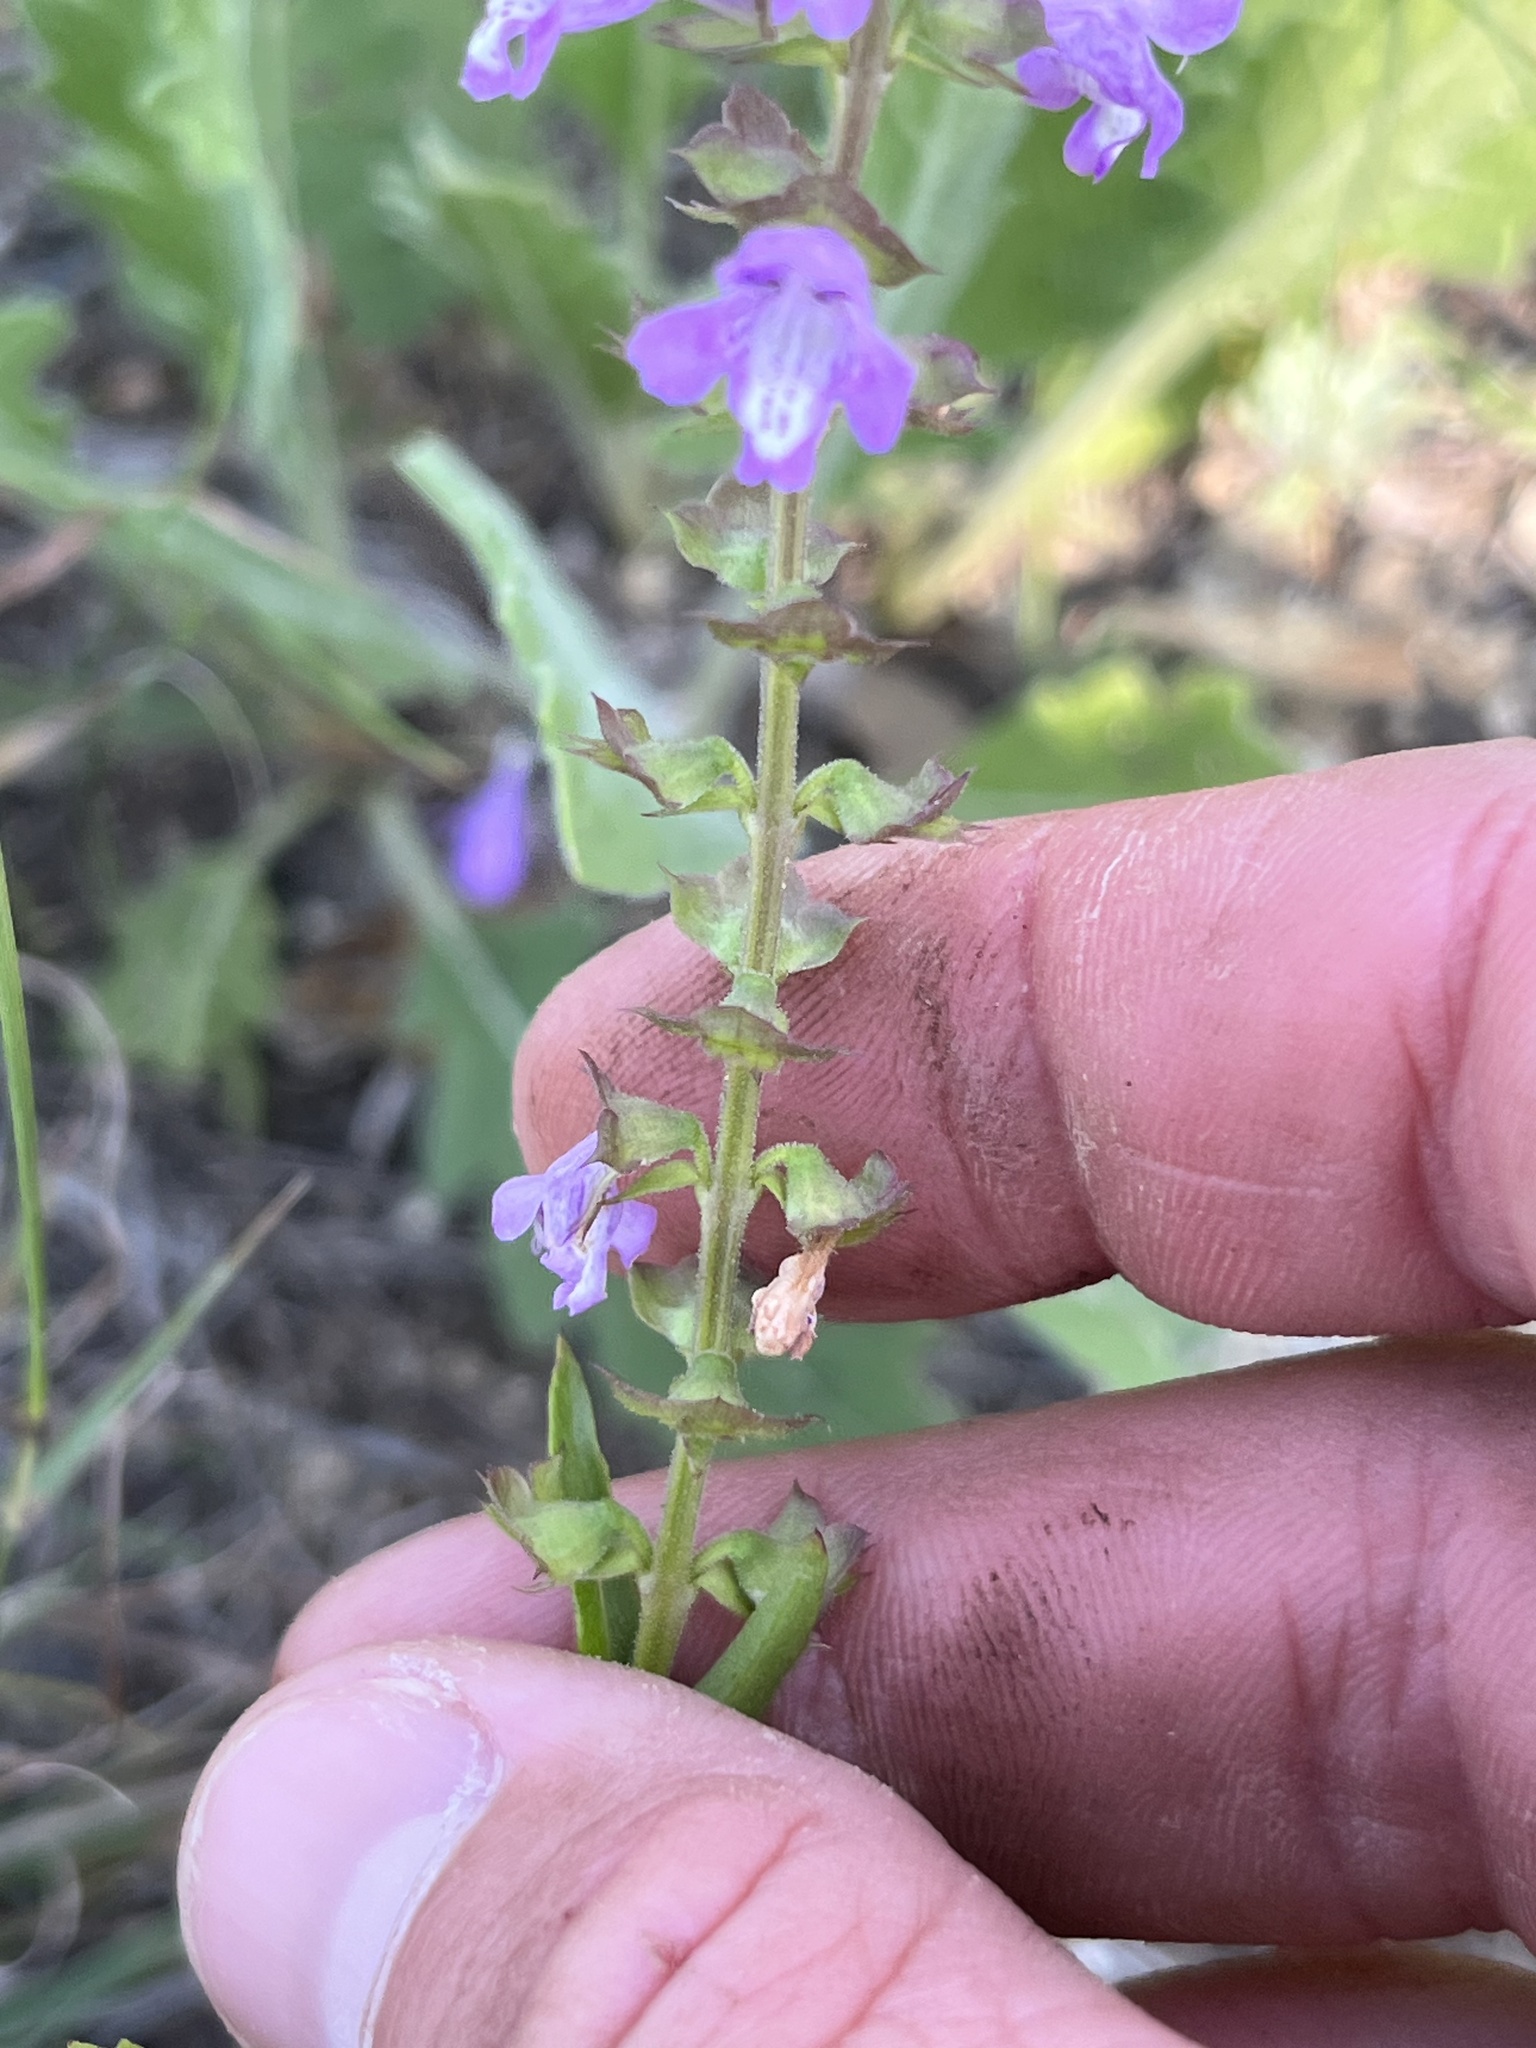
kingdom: Plantae
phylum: Tracheophyta
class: Magnoliopsida
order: Lamiales
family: Lamiaceae
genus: Warnockia
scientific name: Warnockia scutellarioides
